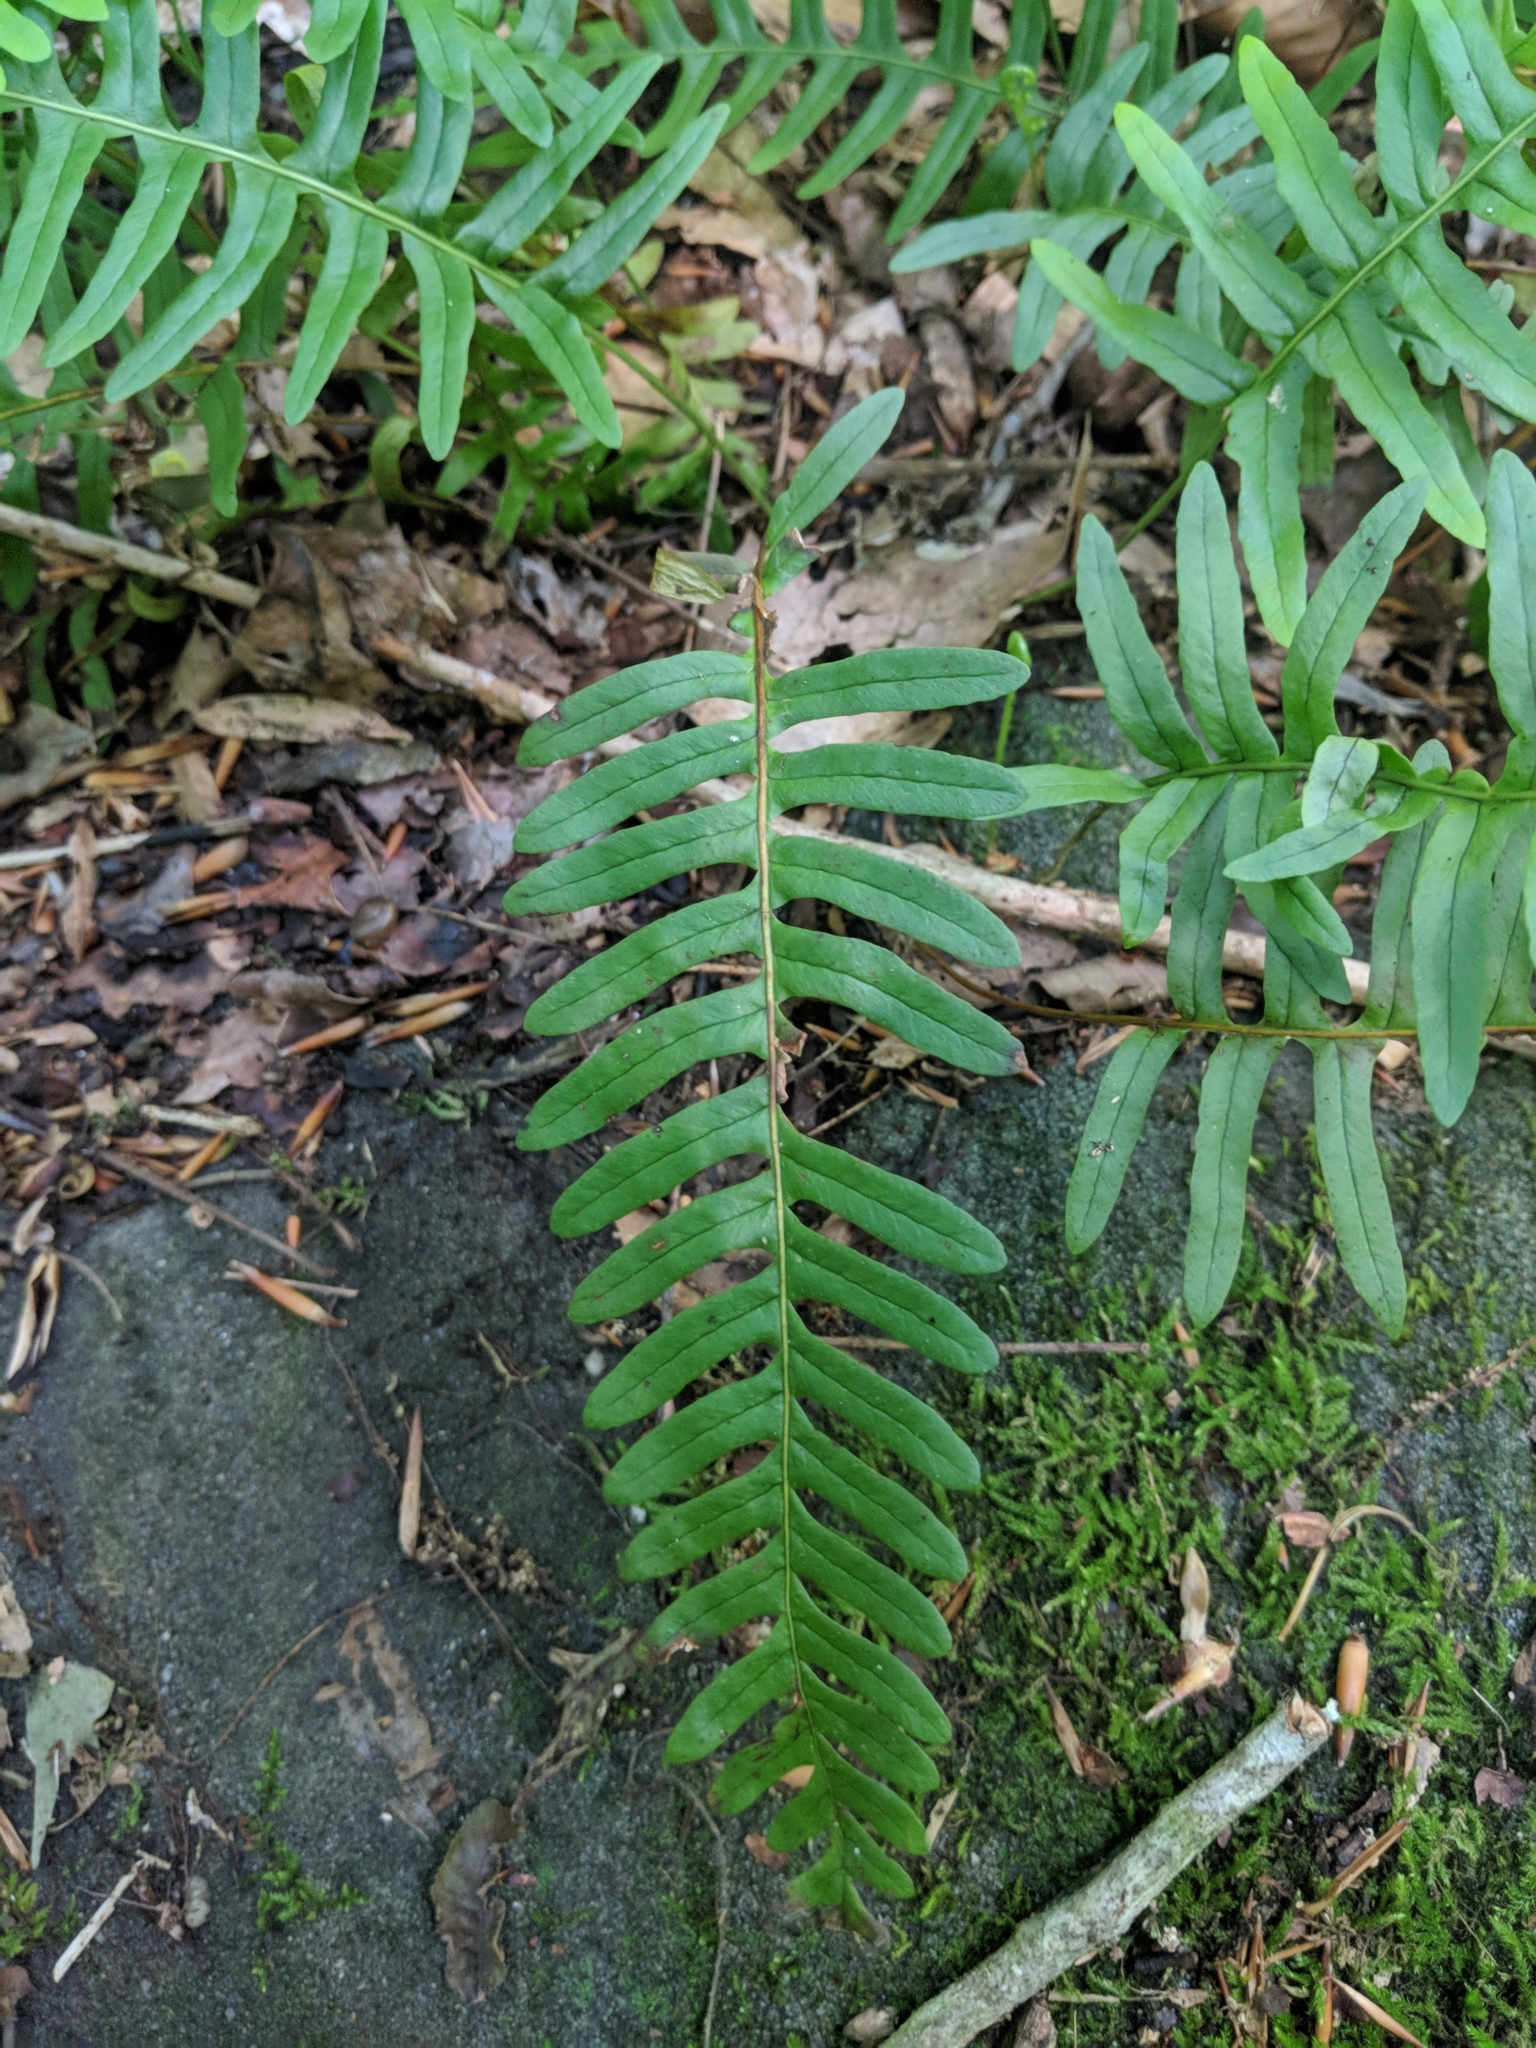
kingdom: Plantae
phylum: Tracheophyta
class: Polypodiopsida
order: Polypodiales
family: Polypodiaceae
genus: Polypodium
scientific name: Polypodium appalachianum
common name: Appalachian polypody
